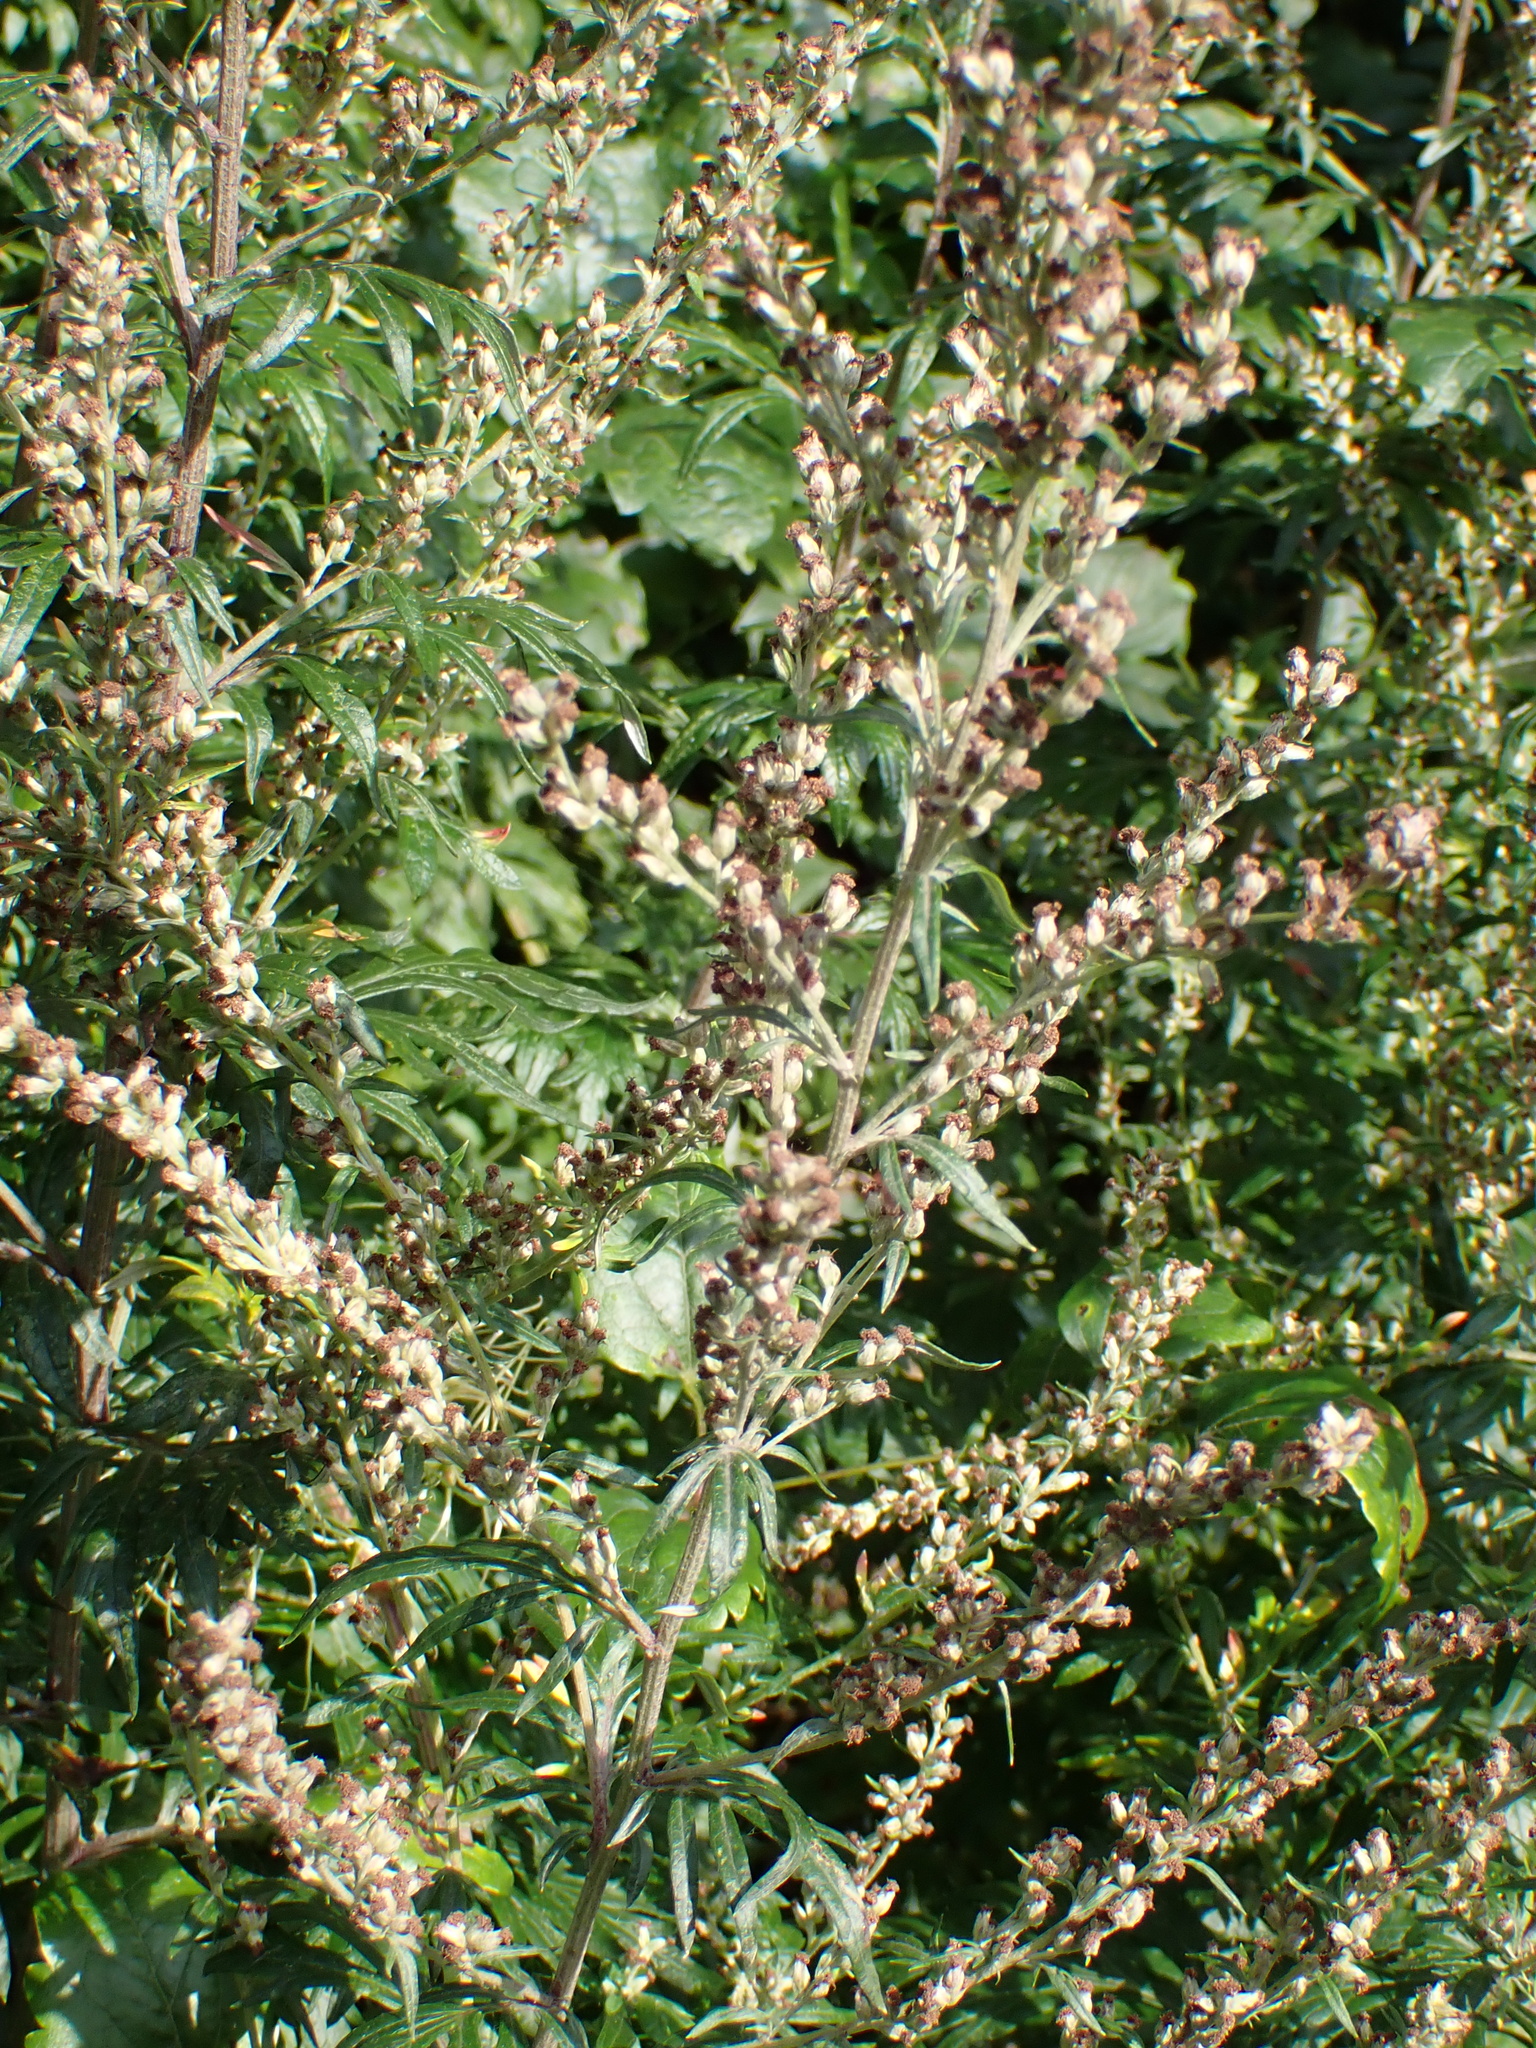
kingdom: Plantae
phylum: Tracheophyta
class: Magnoliopsida
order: Asterales
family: Asteraceae
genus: Artemisia
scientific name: Artemisia vulgaris
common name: Mugwort
